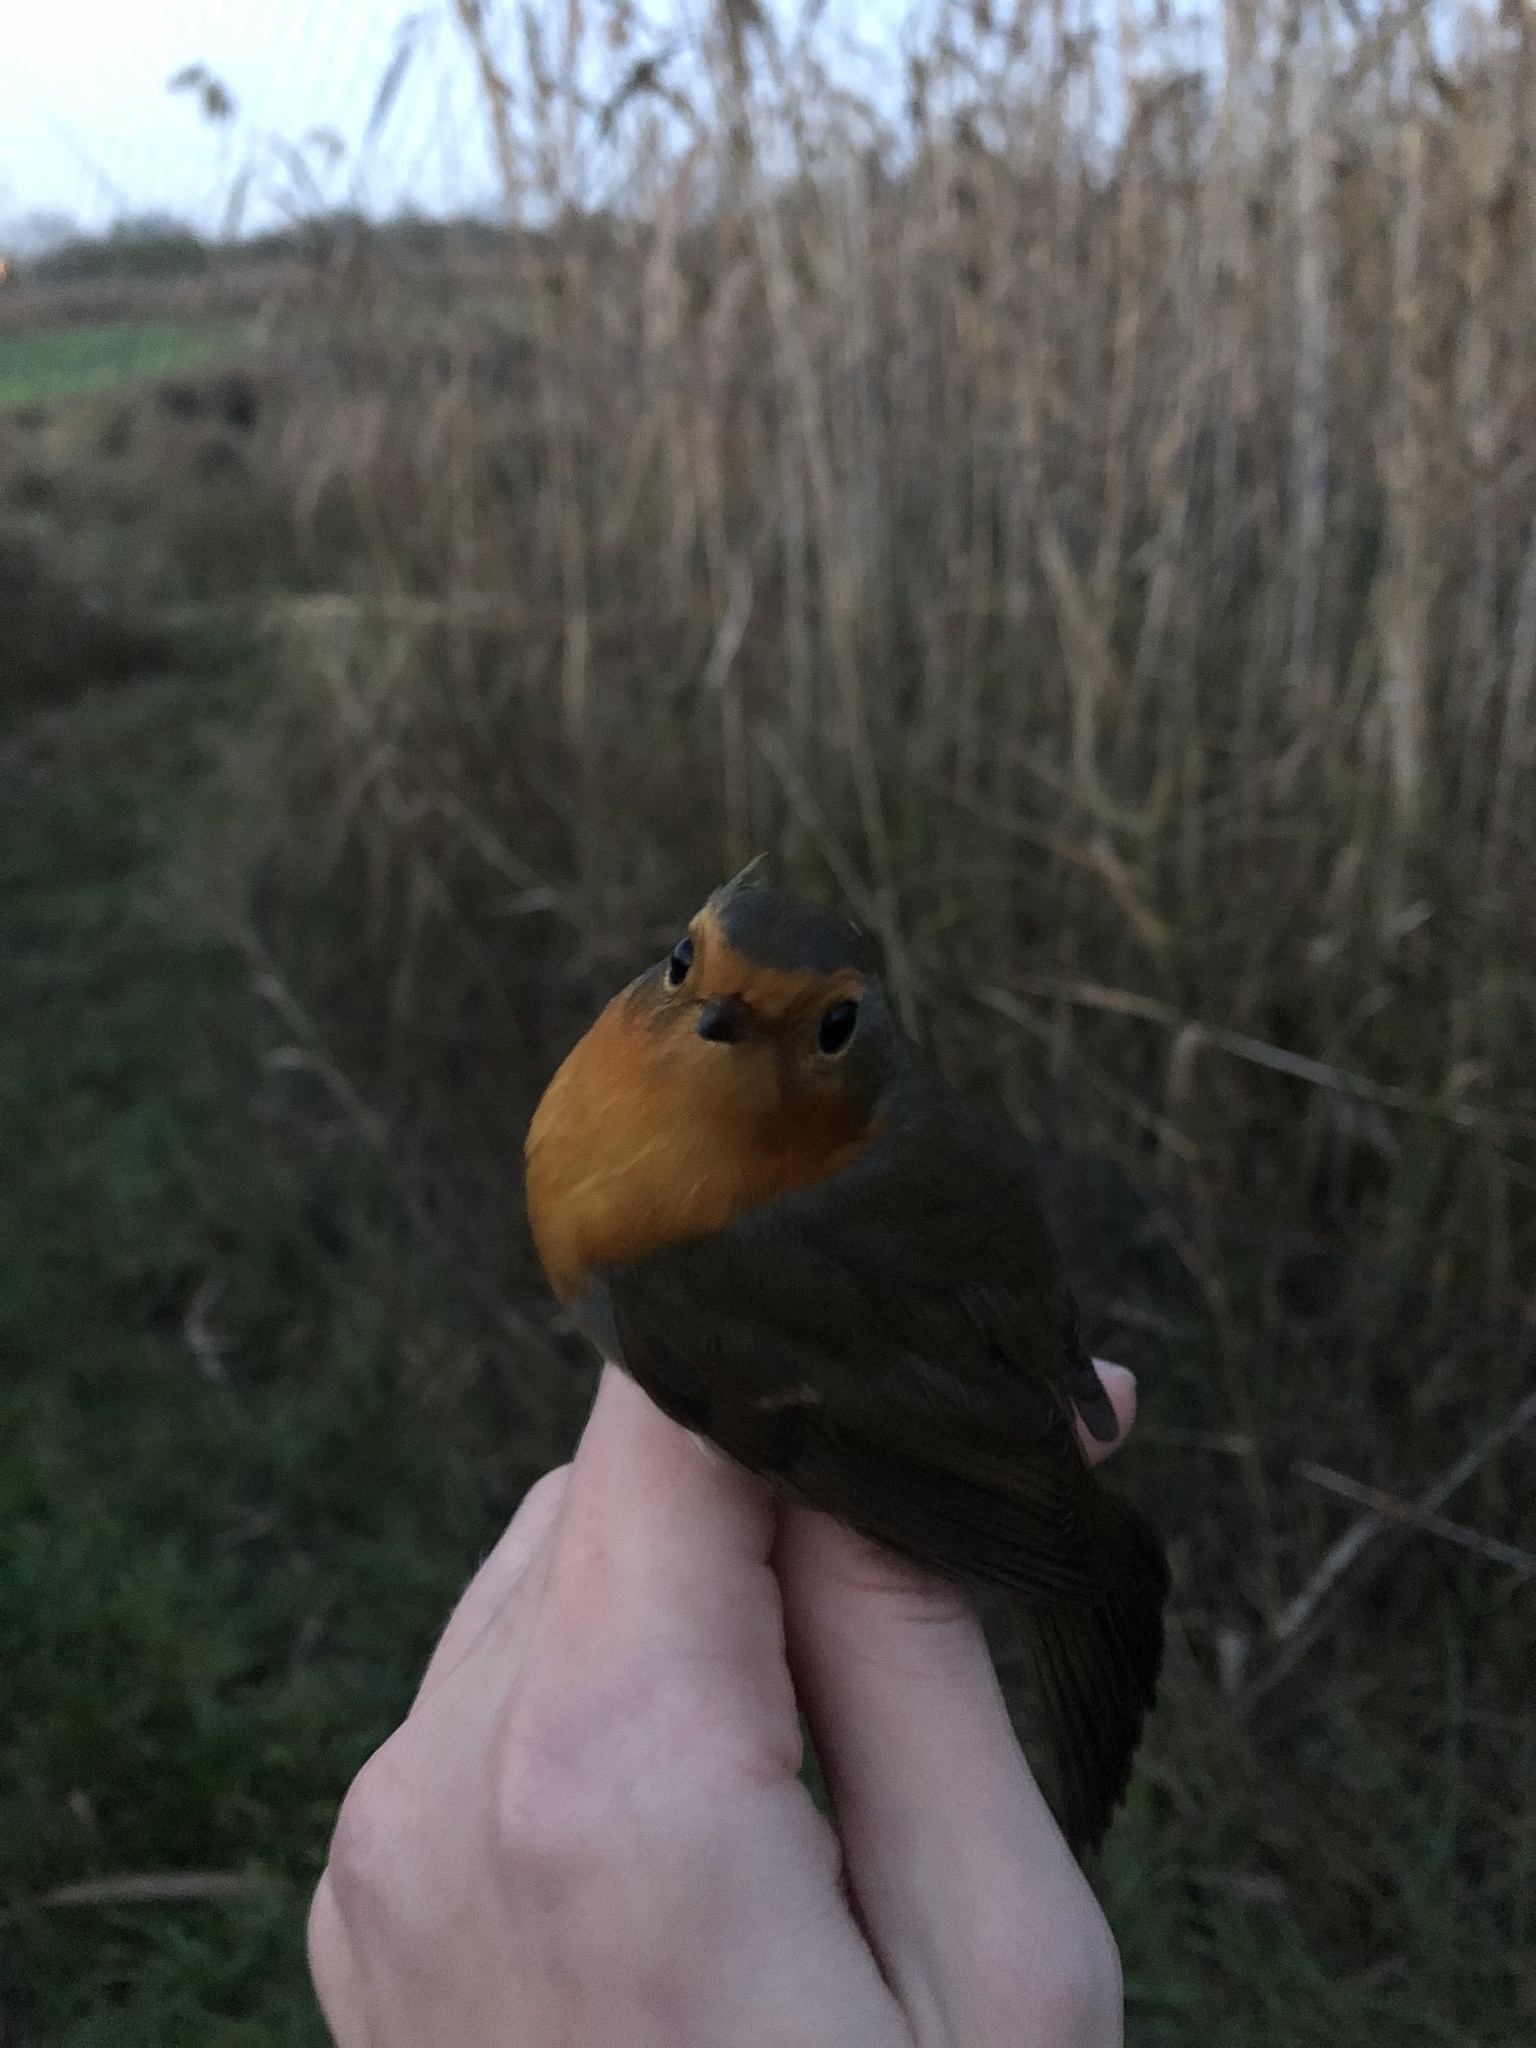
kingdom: Animalia
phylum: Chordata
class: Aves
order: Passeriformes
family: Muscicapidae
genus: Erithacus
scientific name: Erithacus rubecula
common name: European robin
